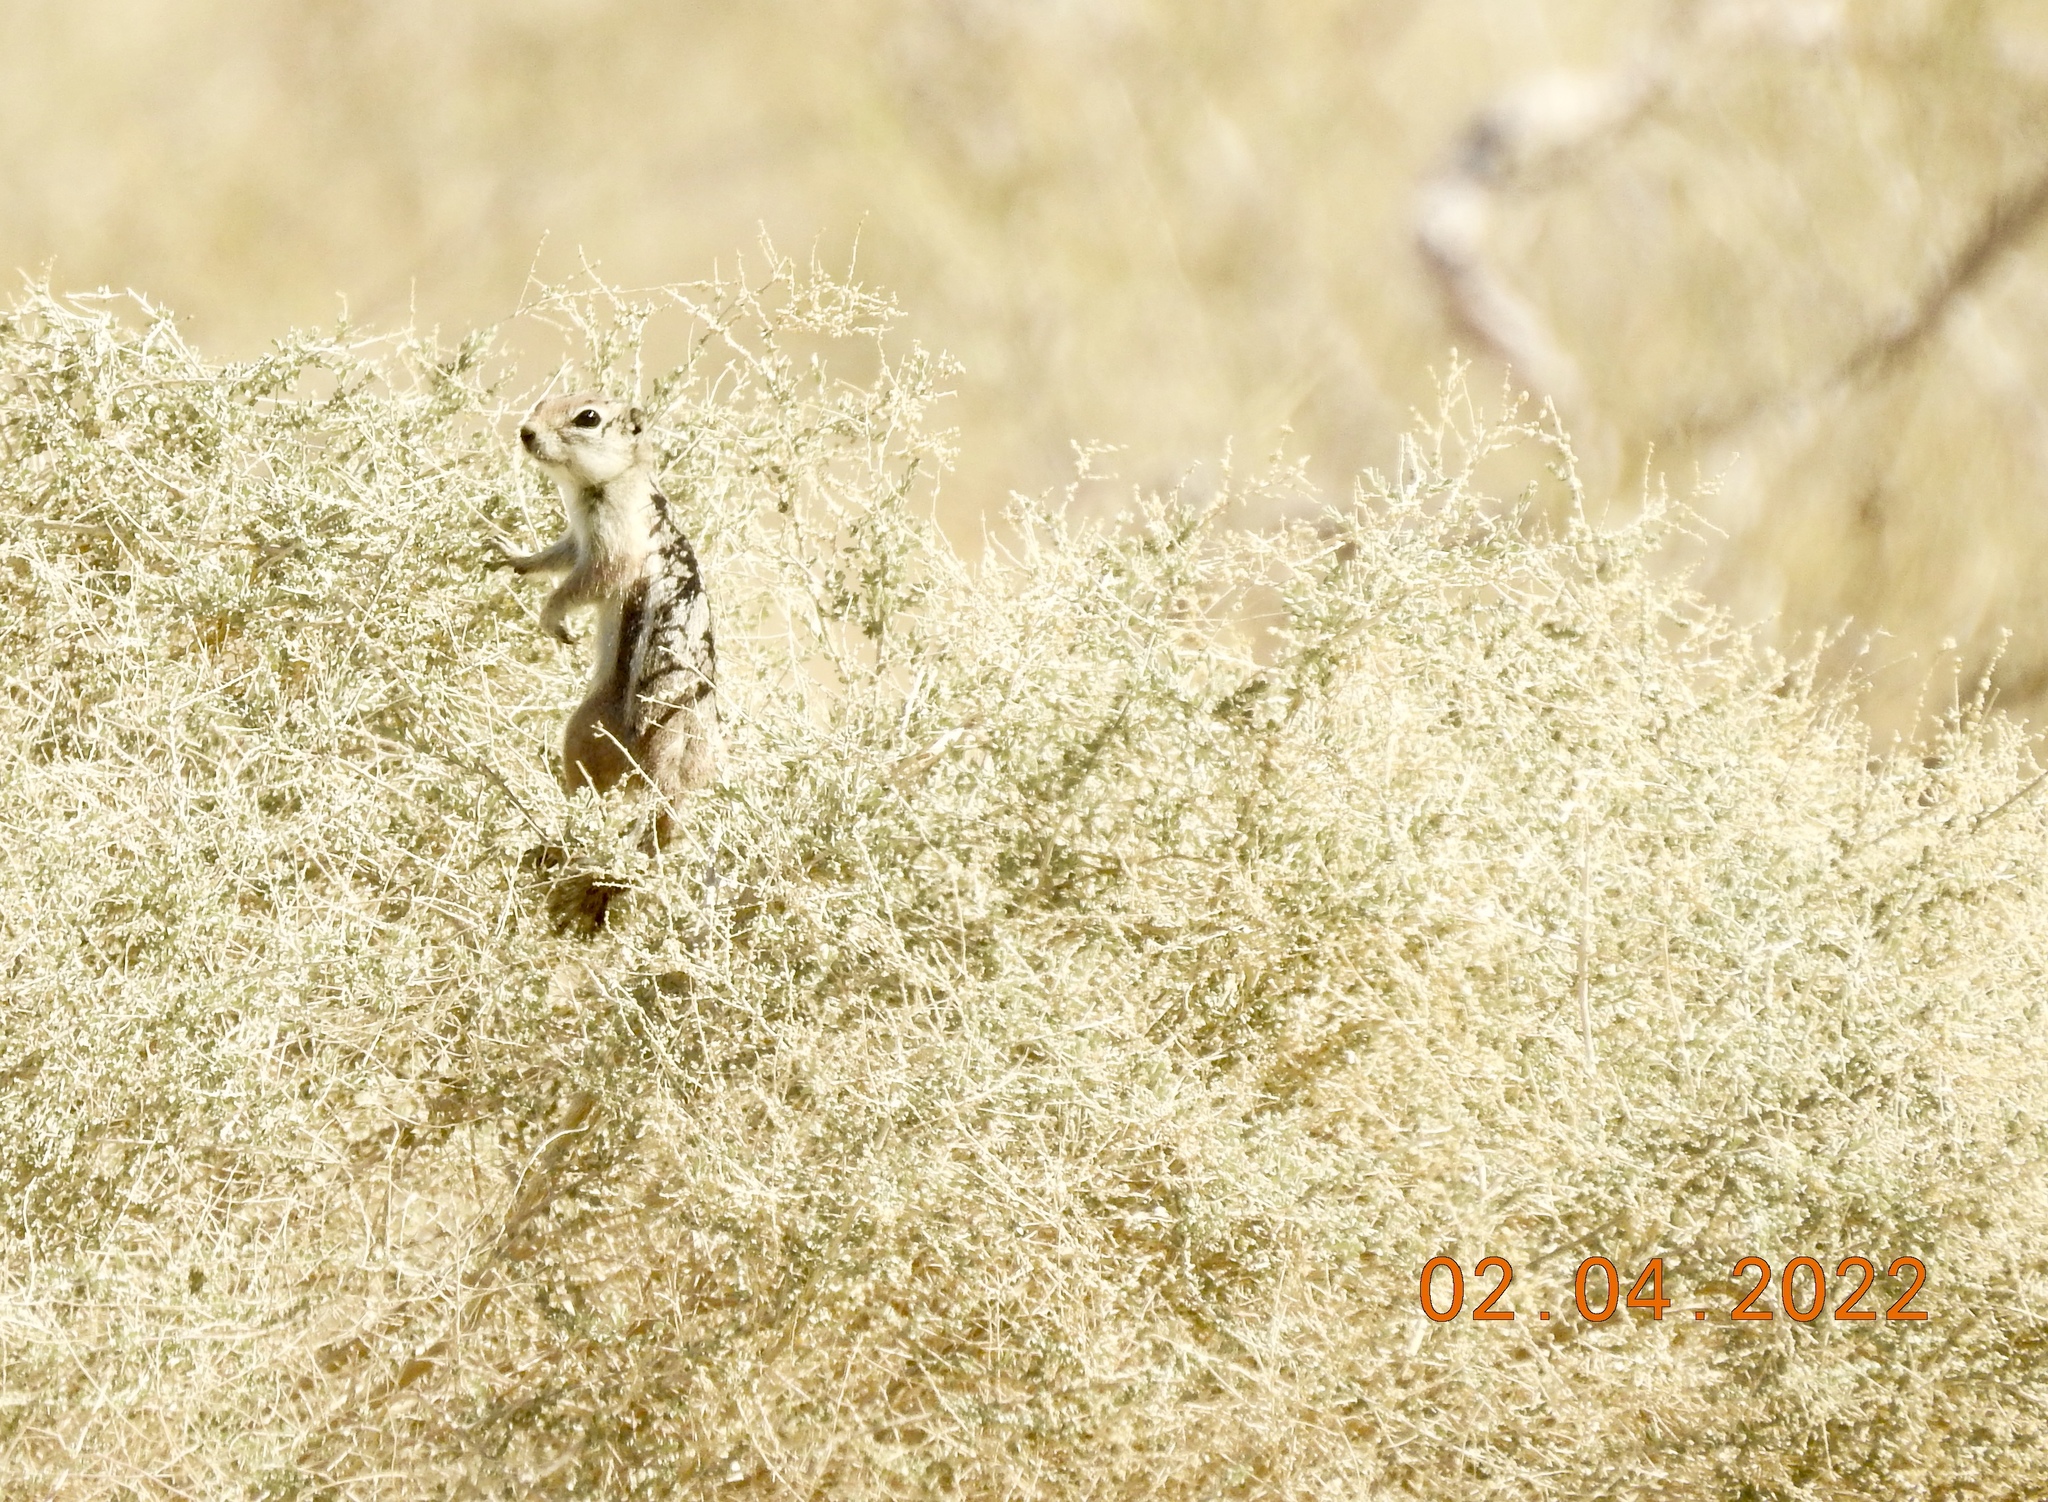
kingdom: Animalia
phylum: Chordata
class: Mammalia
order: Rodentia
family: Sciuridae
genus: Ammospermophilus
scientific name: Ammospermophilus leucurus
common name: White-tailed antelope squirrel
